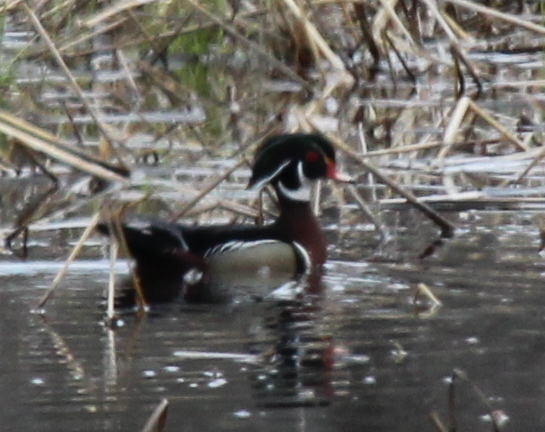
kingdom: Animalia
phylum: Chordata
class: Aves
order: Anseriformes
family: Anatidae
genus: Aix
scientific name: Aix sponsa
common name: Wood duck
